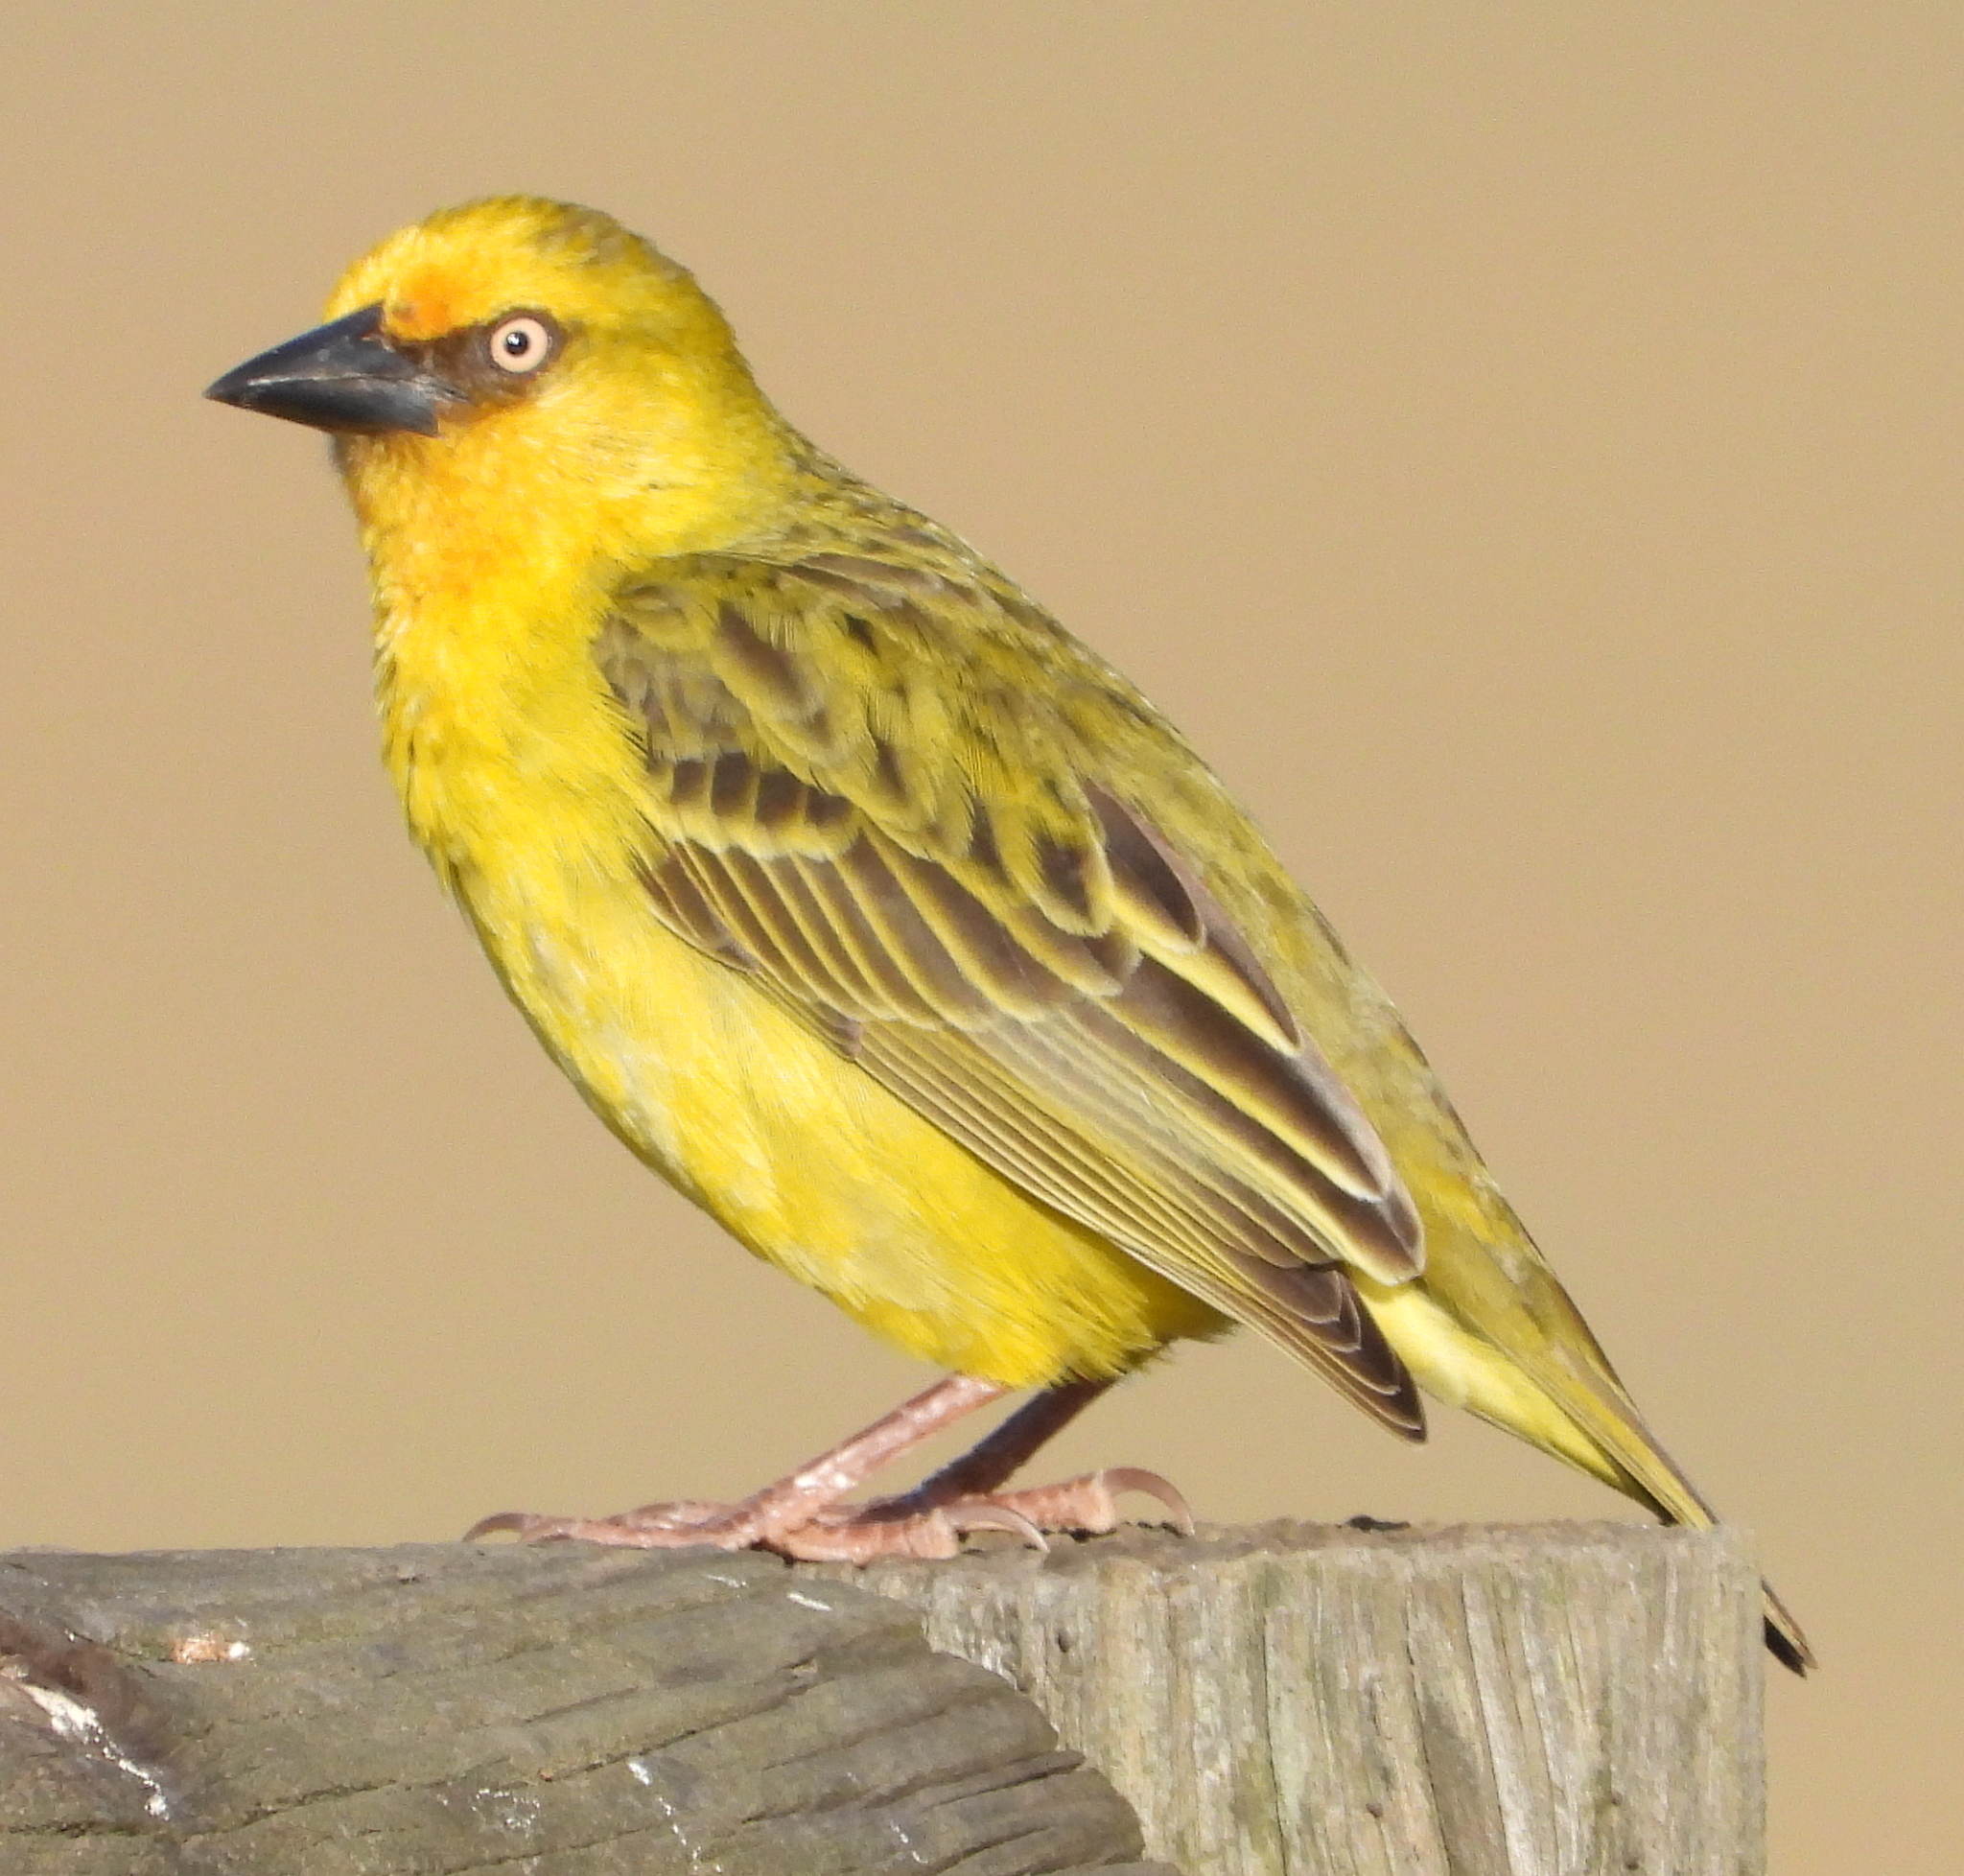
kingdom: Animalia
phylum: Chordata
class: Aves
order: Passeriformes
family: Ploceidae
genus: Ploceus
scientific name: Ploceus capensis
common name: Cape weaver
